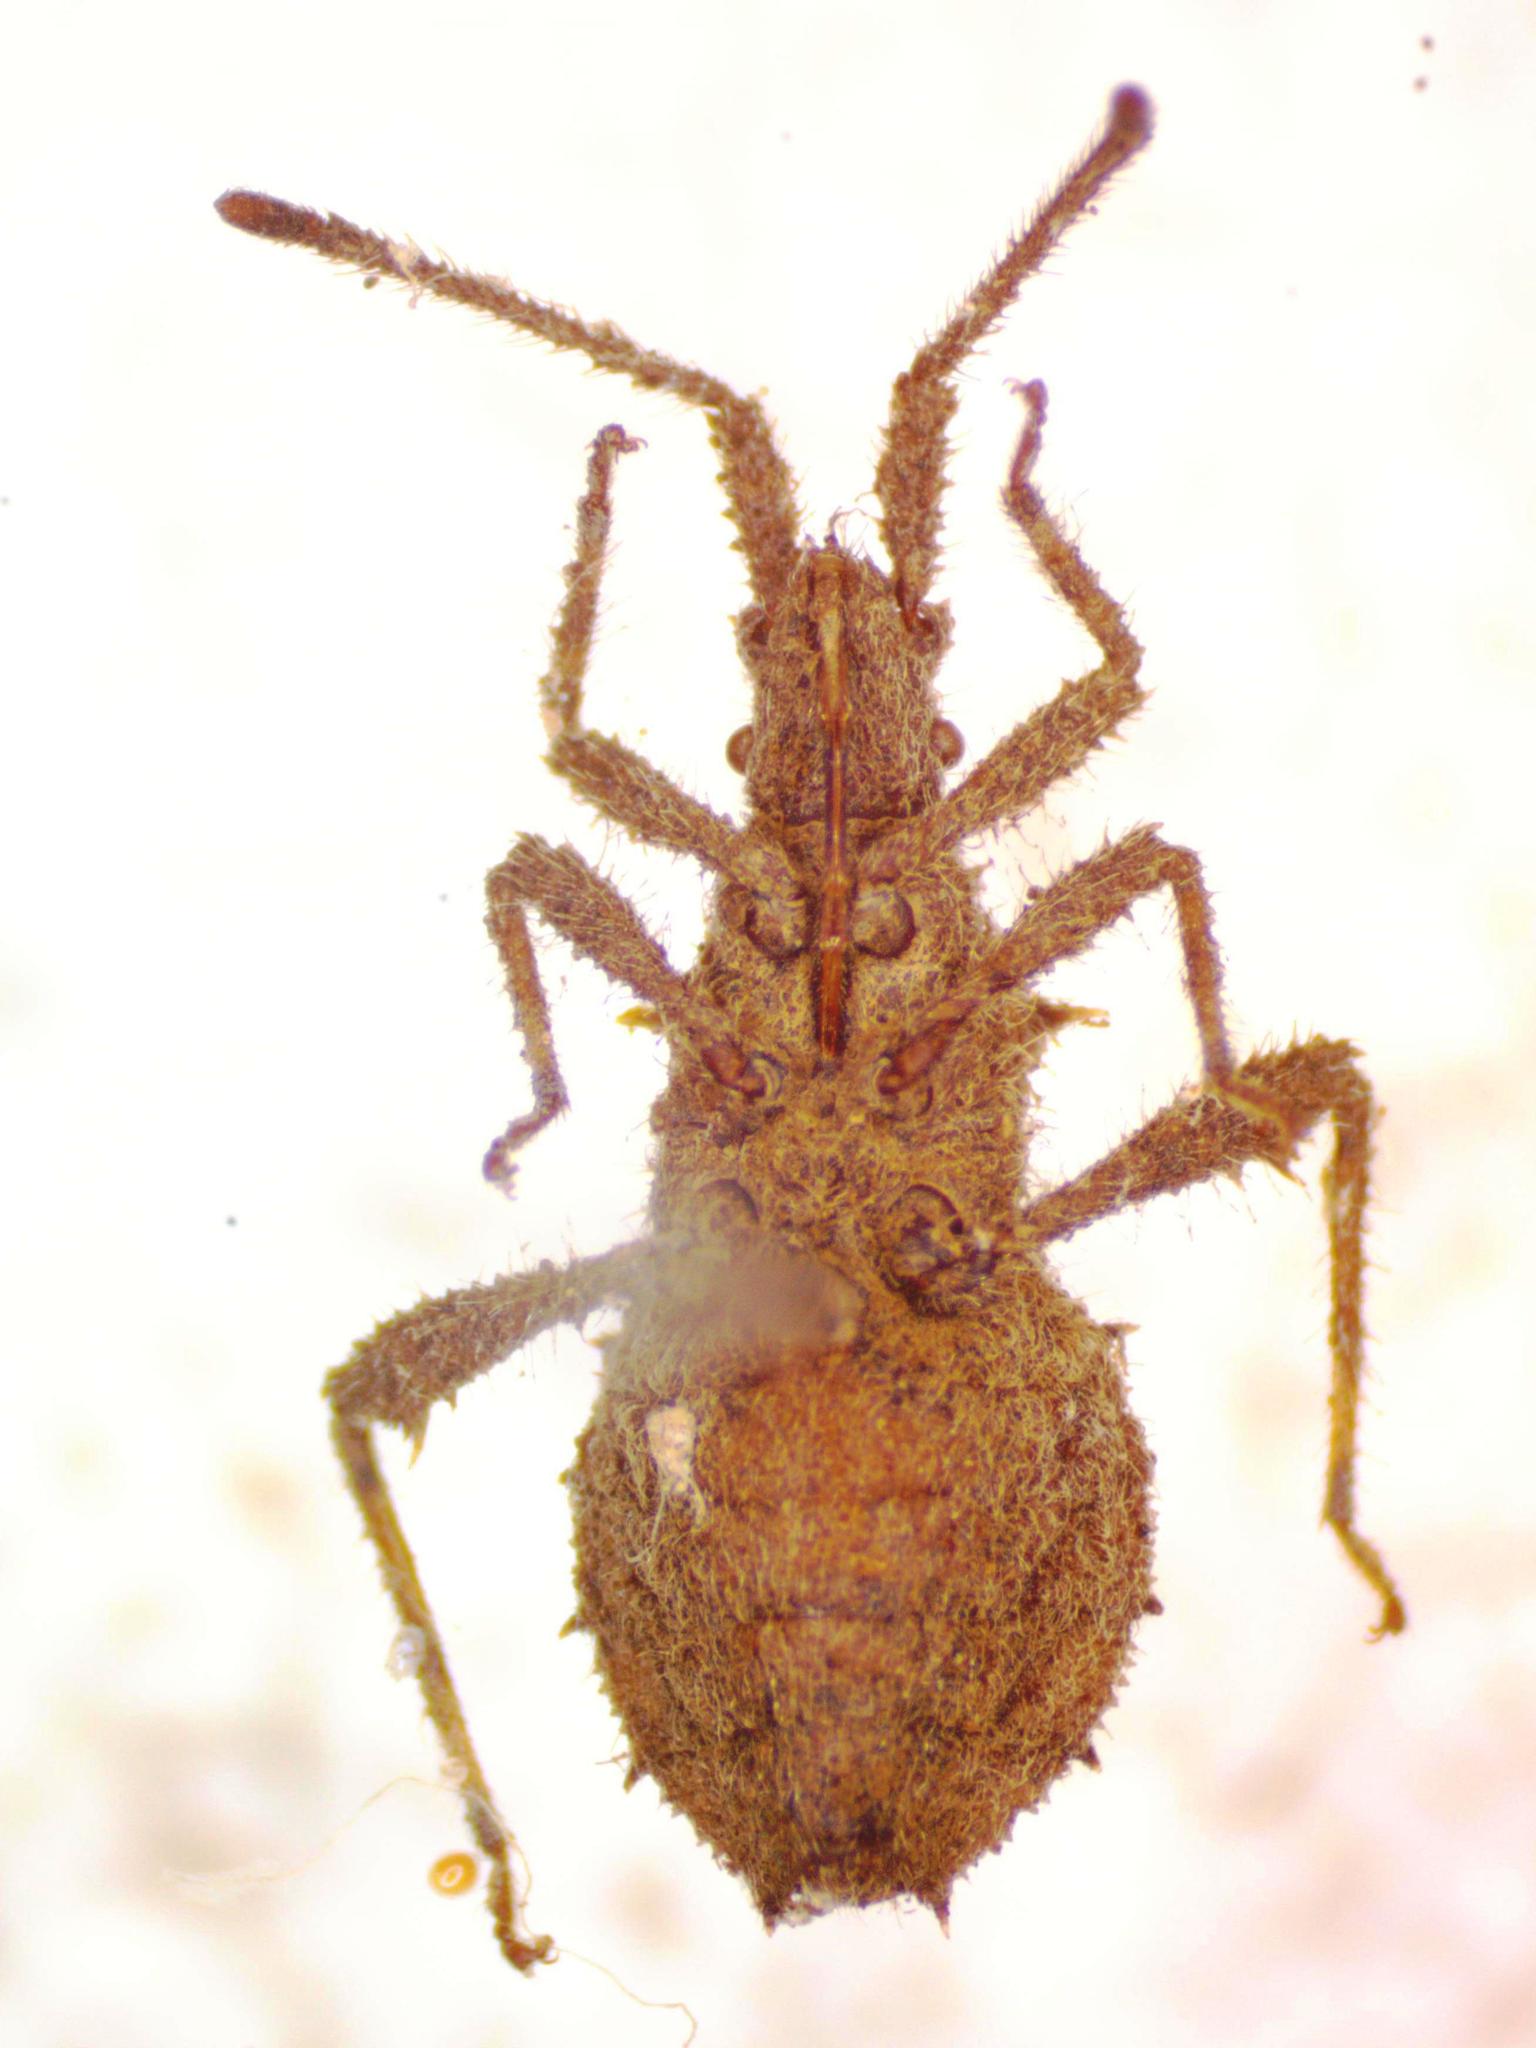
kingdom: Animalia
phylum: Arthropoda
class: Insecta
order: Hemiptera
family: Coreidae
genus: Vilga
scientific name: Vilga mexicana
